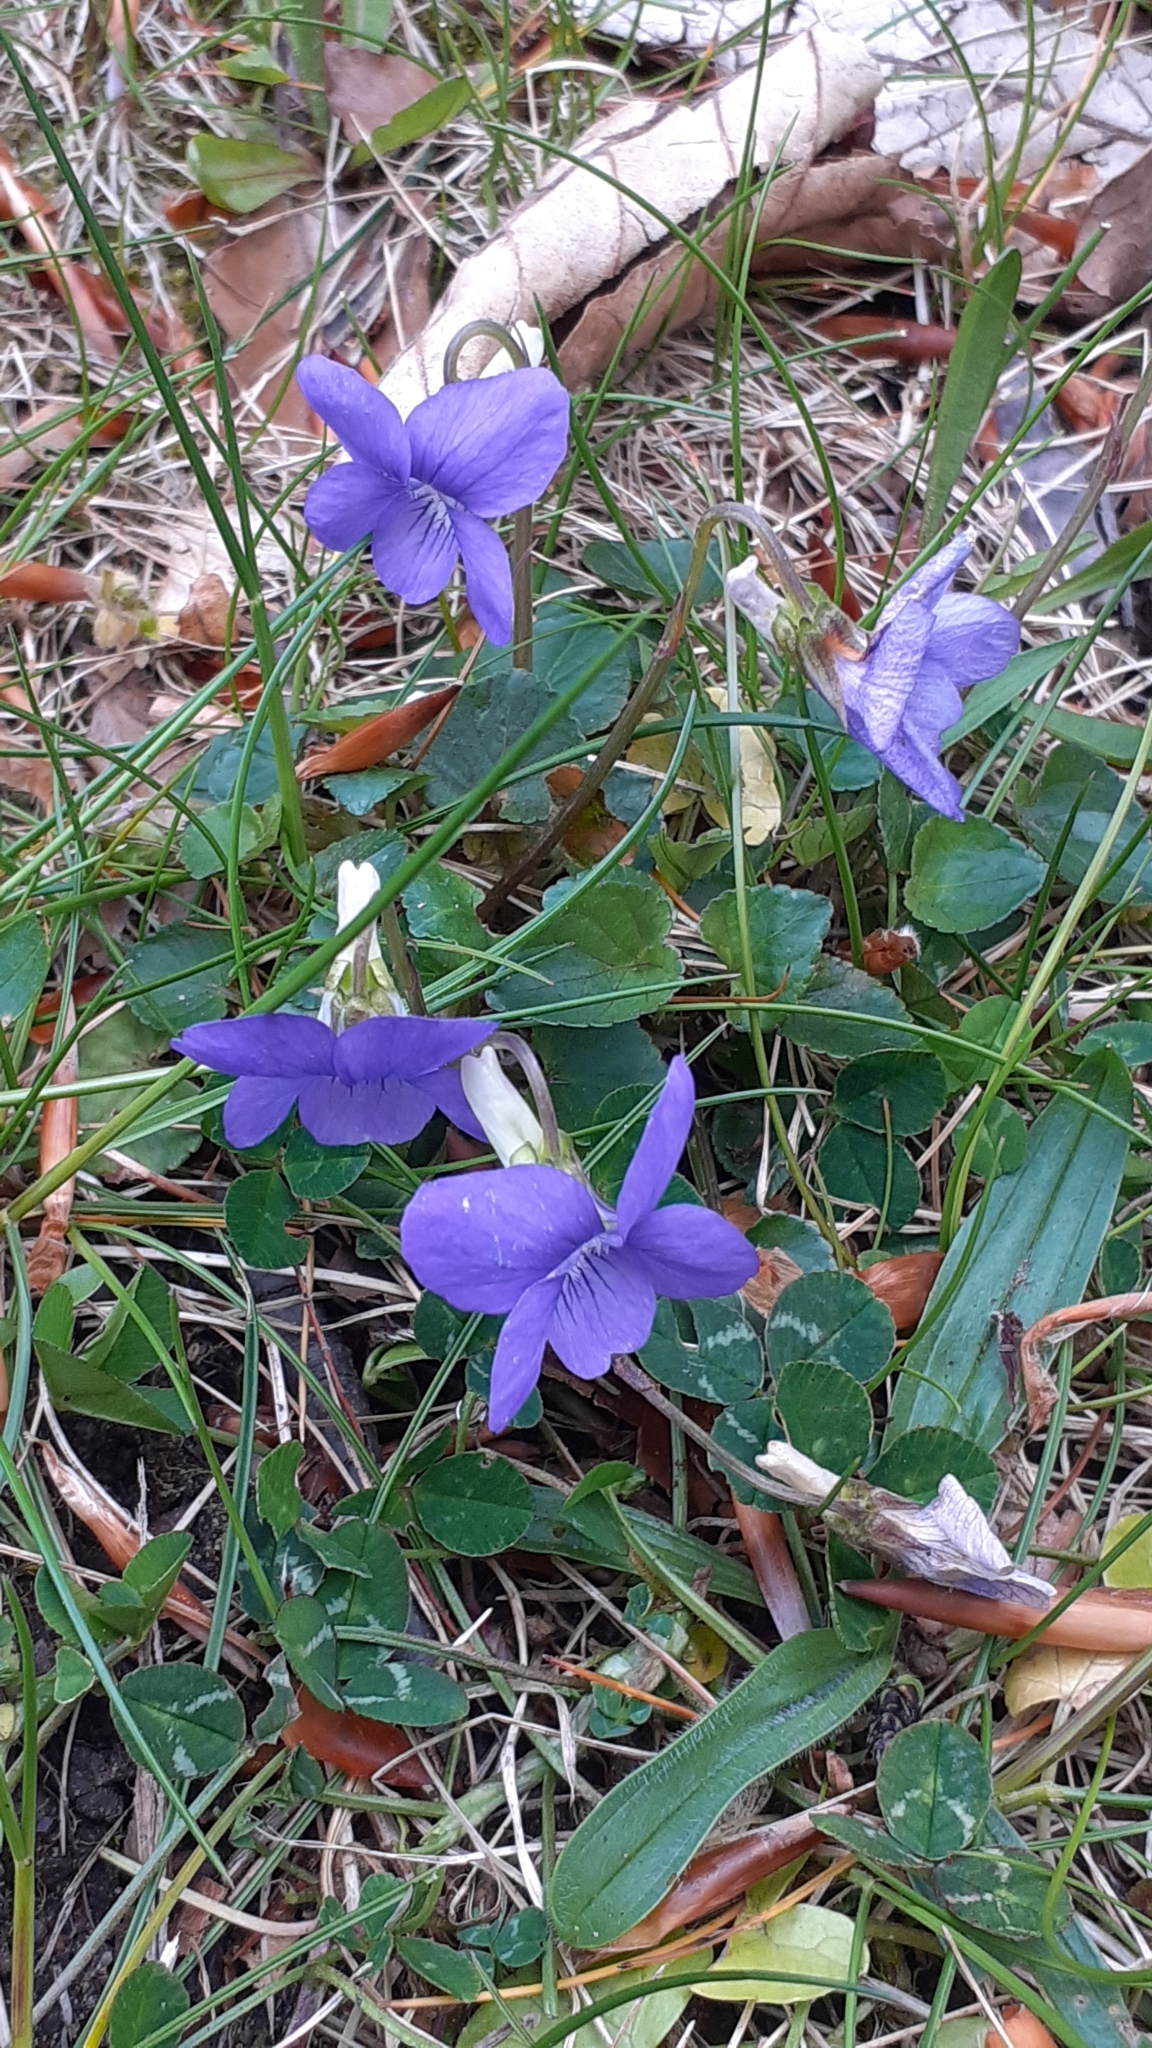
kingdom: Plantae
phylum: Tracheophyta
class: Magnoliopsida
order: Malpighiales
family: Violaceae
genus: Viola
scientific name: Viola riviniana
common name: Common dog-violet
